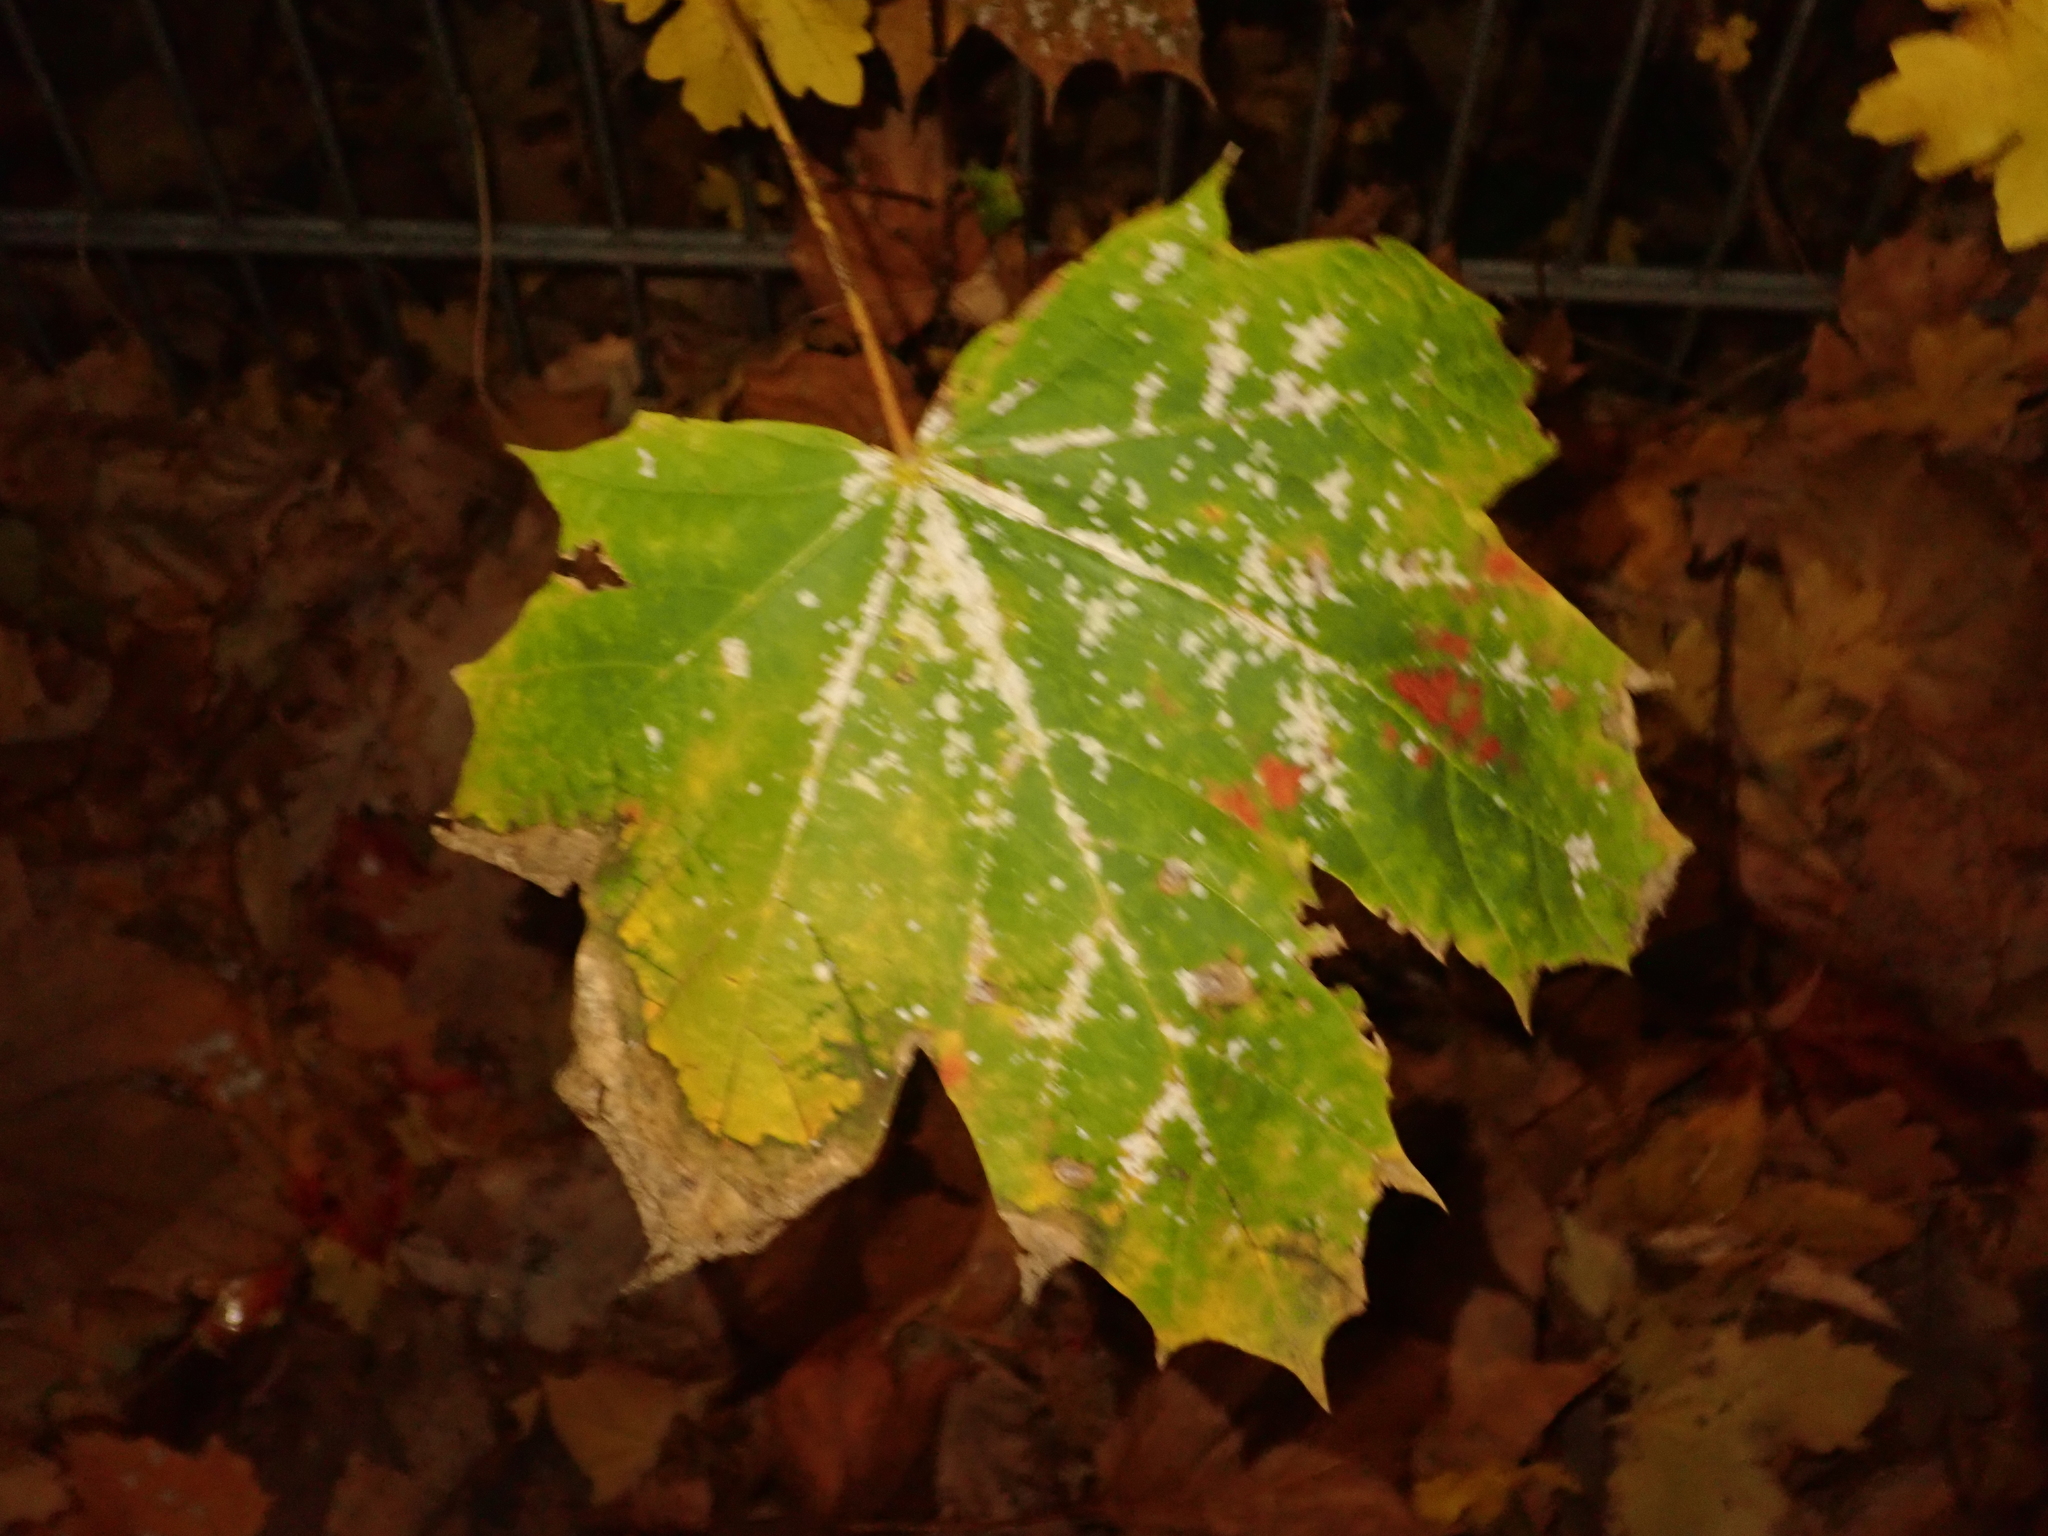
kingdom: Plantae
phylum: Tracheophyta
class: Magnoliopsida
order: Sapindales
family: Sapindaceae
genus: Acer
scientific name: Acer platanoides
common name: Norway maple
